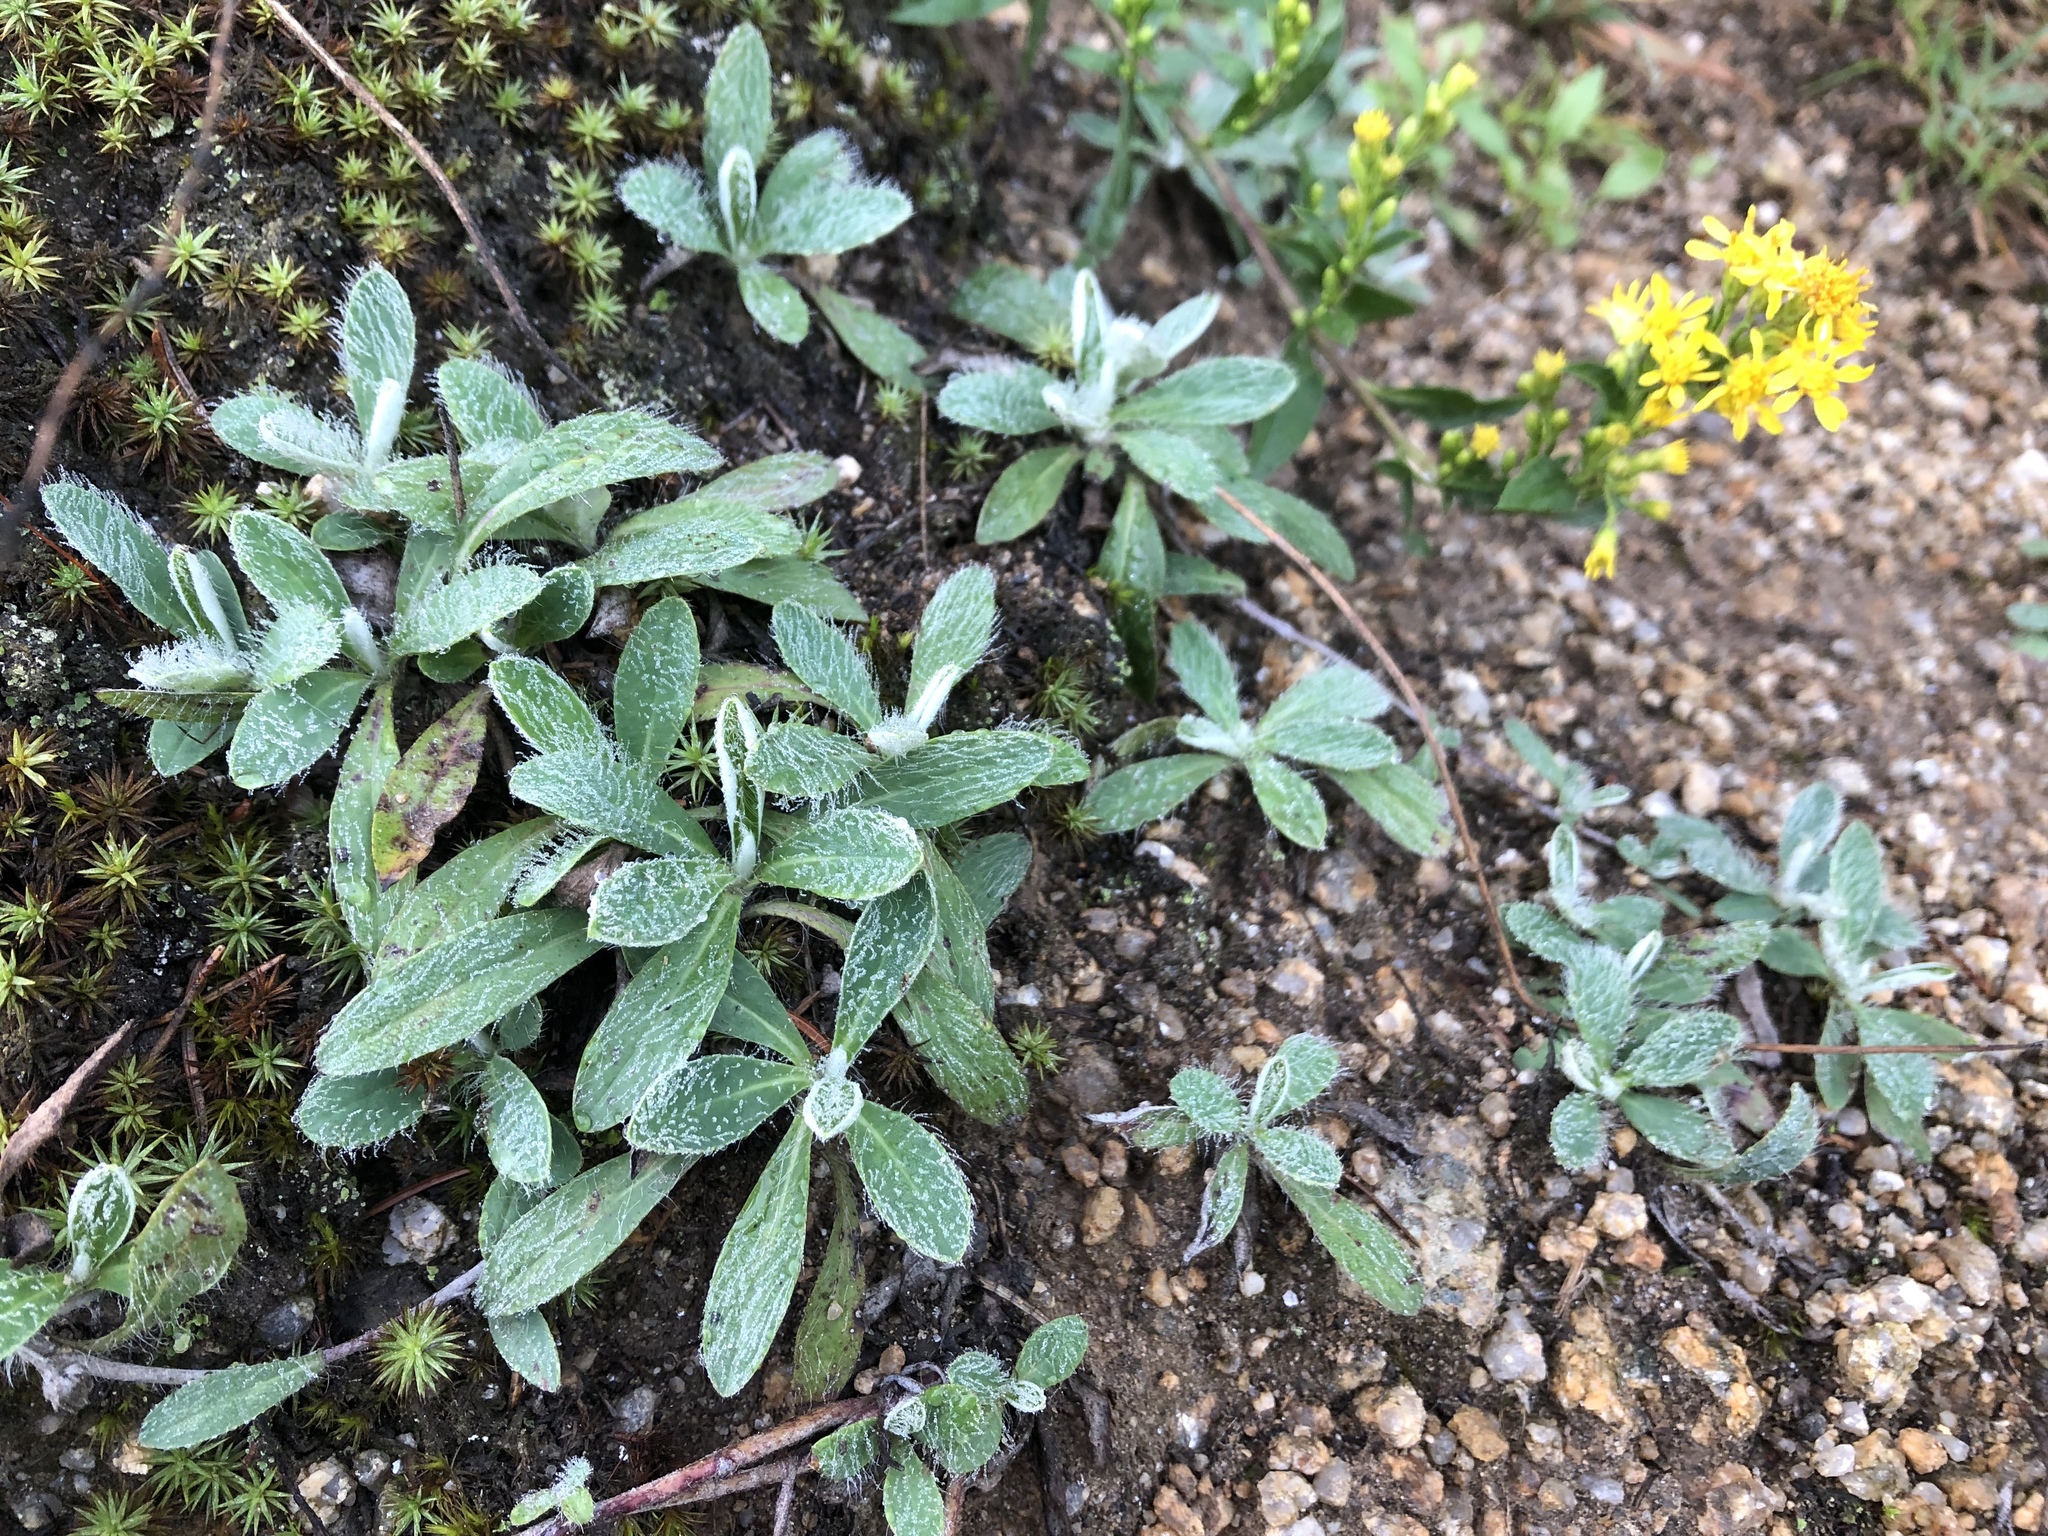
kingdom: Plantae
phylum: Tracheophyta
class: Magnoliopsida
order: Asterales
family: Asteraceae
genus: Pilosella
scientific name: Pilosella officinarum
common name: Mouse-ear hawkweed
